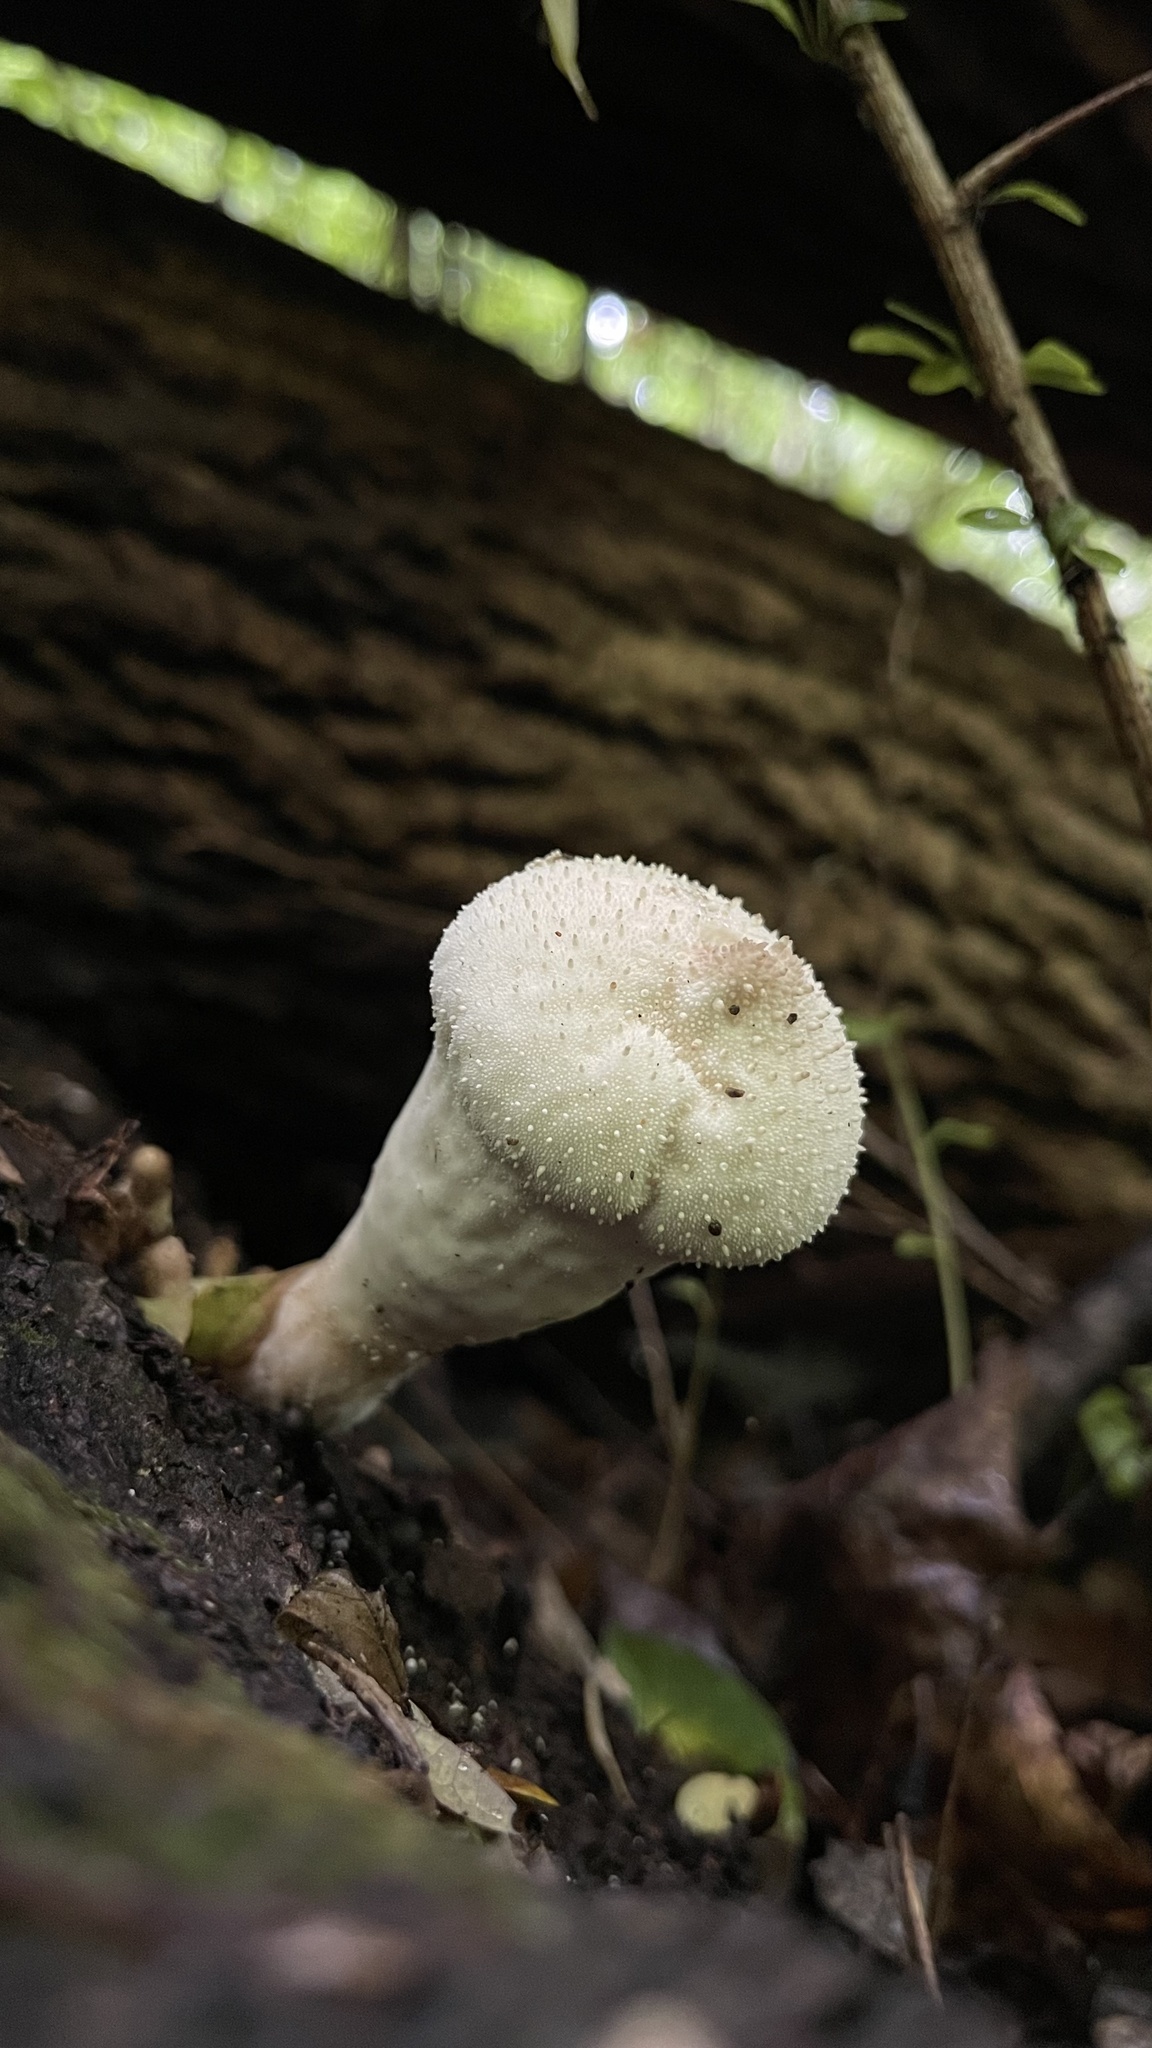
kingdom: Fungi
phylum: Basidiomycota
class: Agaricomycetes
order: Agaricales
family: Lycoperdaceae
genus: Lycoperdon
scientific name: Lycoperdon perlatum
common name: Common puffball
